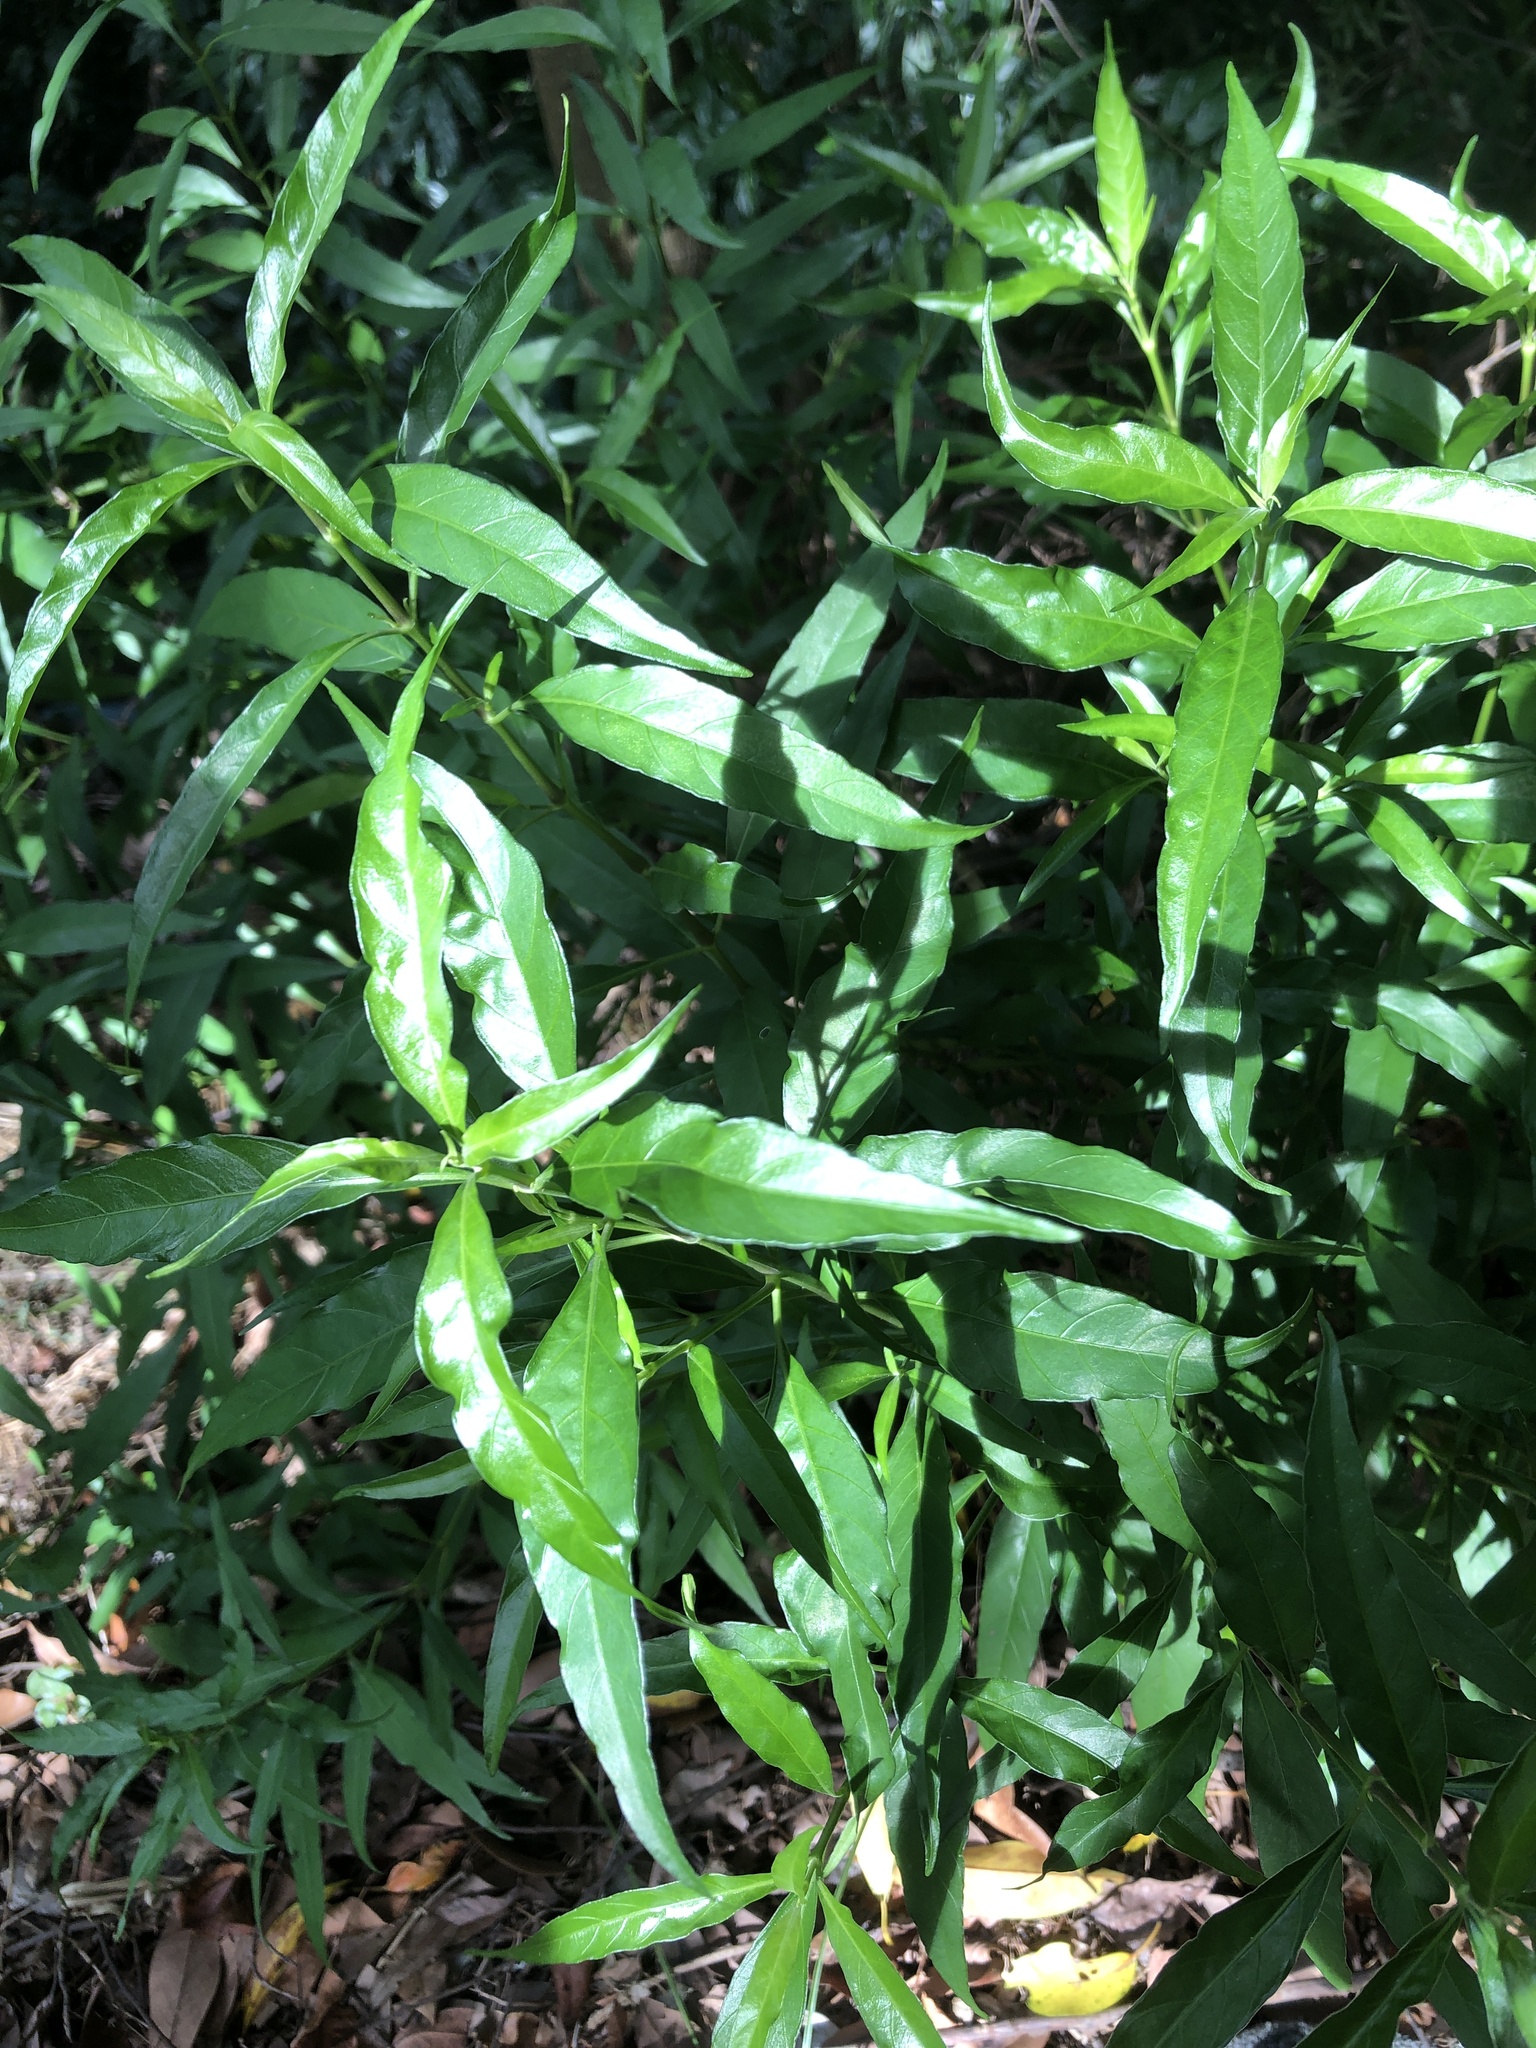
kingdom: Plantae
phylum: Tracheophyta
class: Magnoliopsida
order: Lamiales
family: Acanthaceae
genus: Justicia
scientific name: Justicia gendarussa
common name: Warer willow
